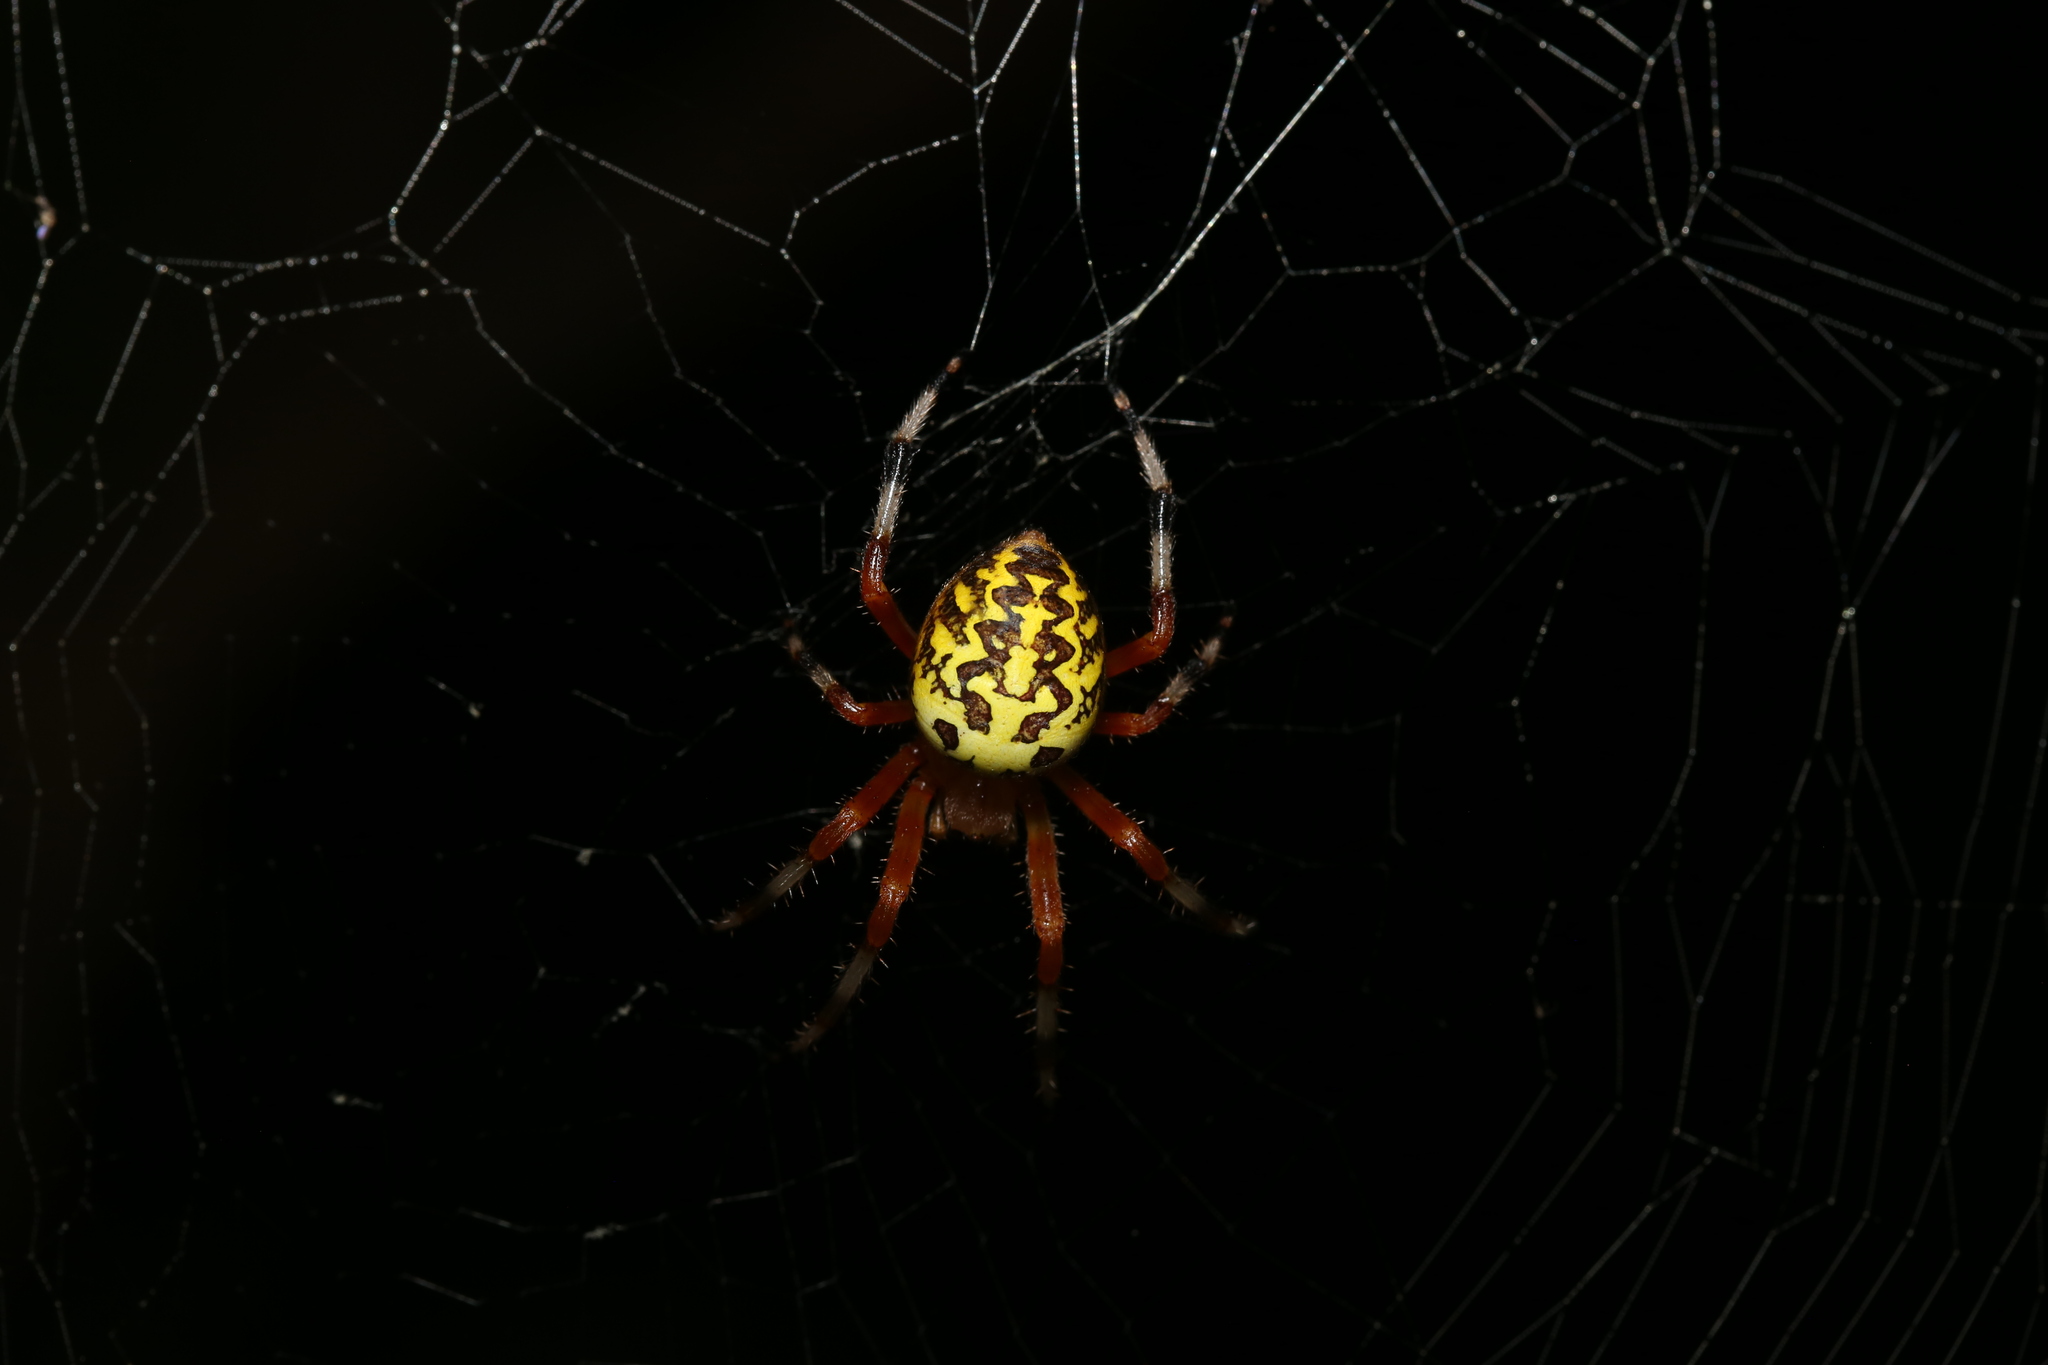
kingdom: Animalia
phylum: Arthropoda
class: Arachnida
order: Araneae
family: Araneidae
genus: Araneus
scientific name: Araneus marmoreus
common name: Marbled orbweaver
